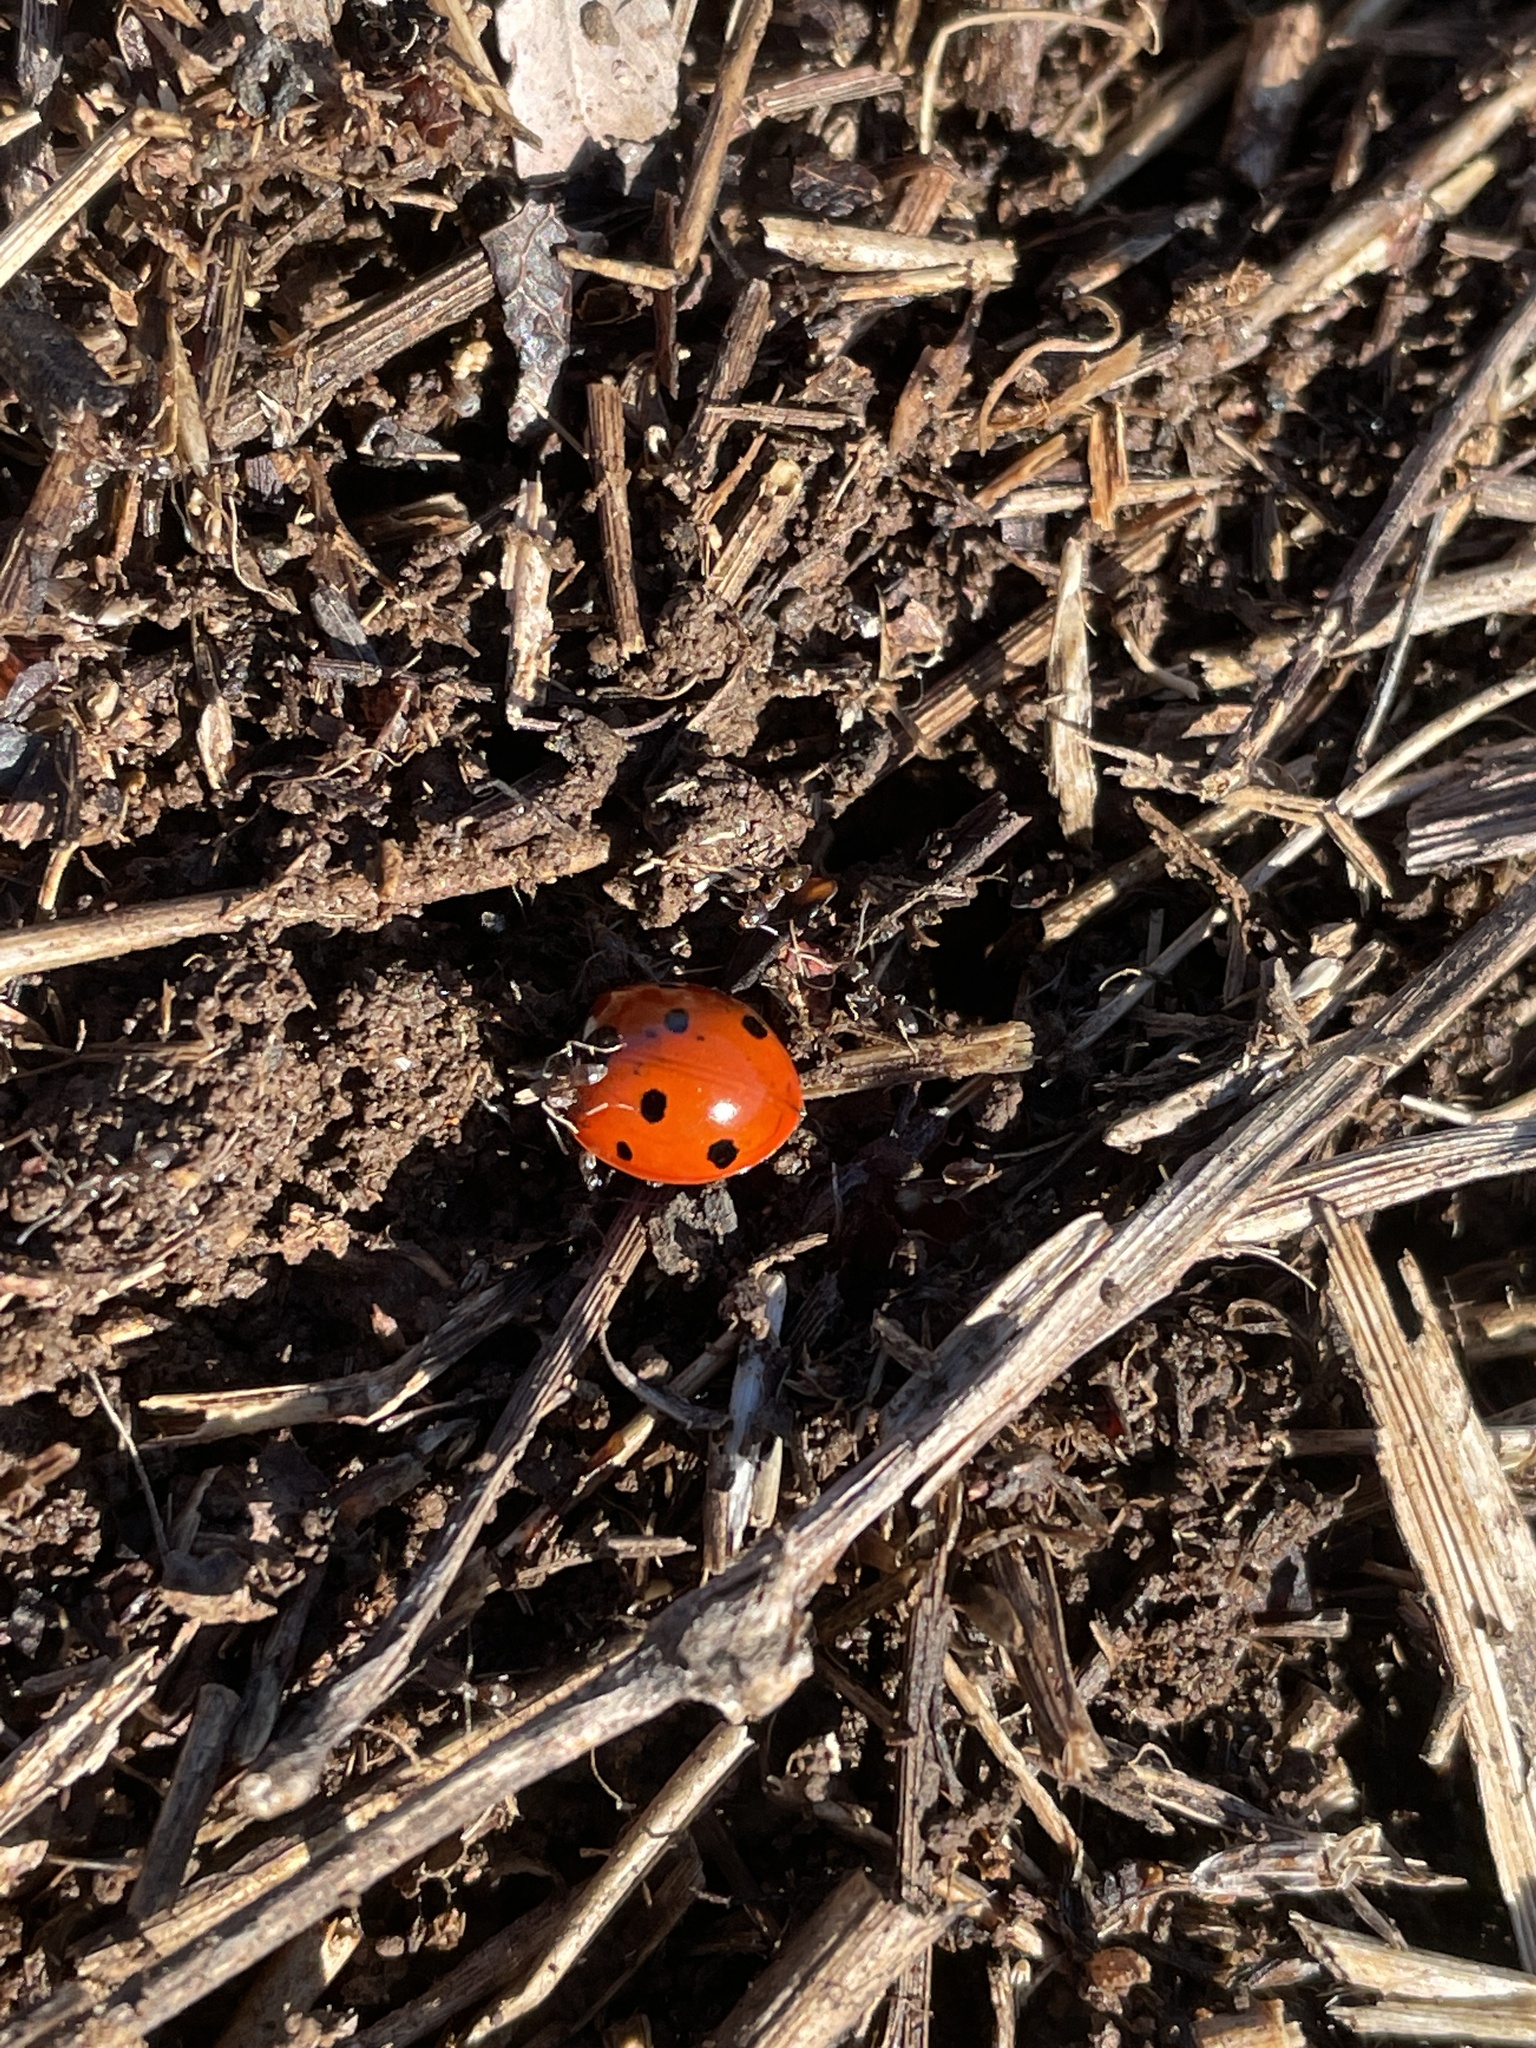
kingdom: Animalia
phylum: Arthropoda
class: Insecta
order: Coleoptera
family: Coccinellidae
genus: Coccinella
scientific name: Coccinella septempunctata
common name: Sevenspotted lady beetle
